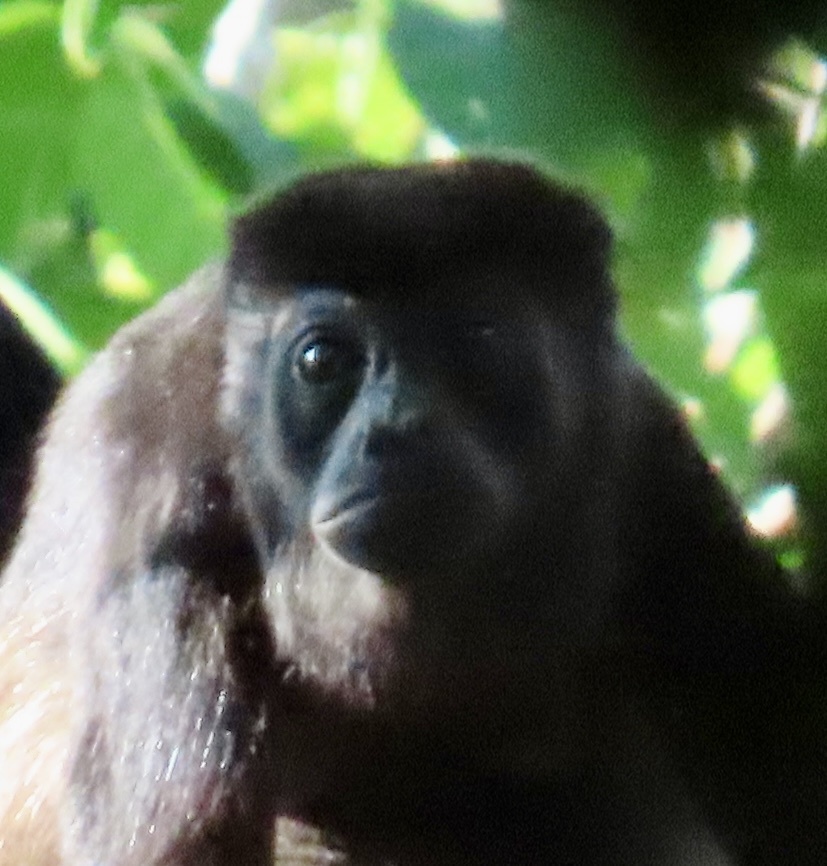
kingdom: Animalia
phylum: Chordata
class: Mammalia
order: Primates
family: Atelidae
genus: Alouatta
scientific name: Alouatta palliata
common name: Mantled howler
